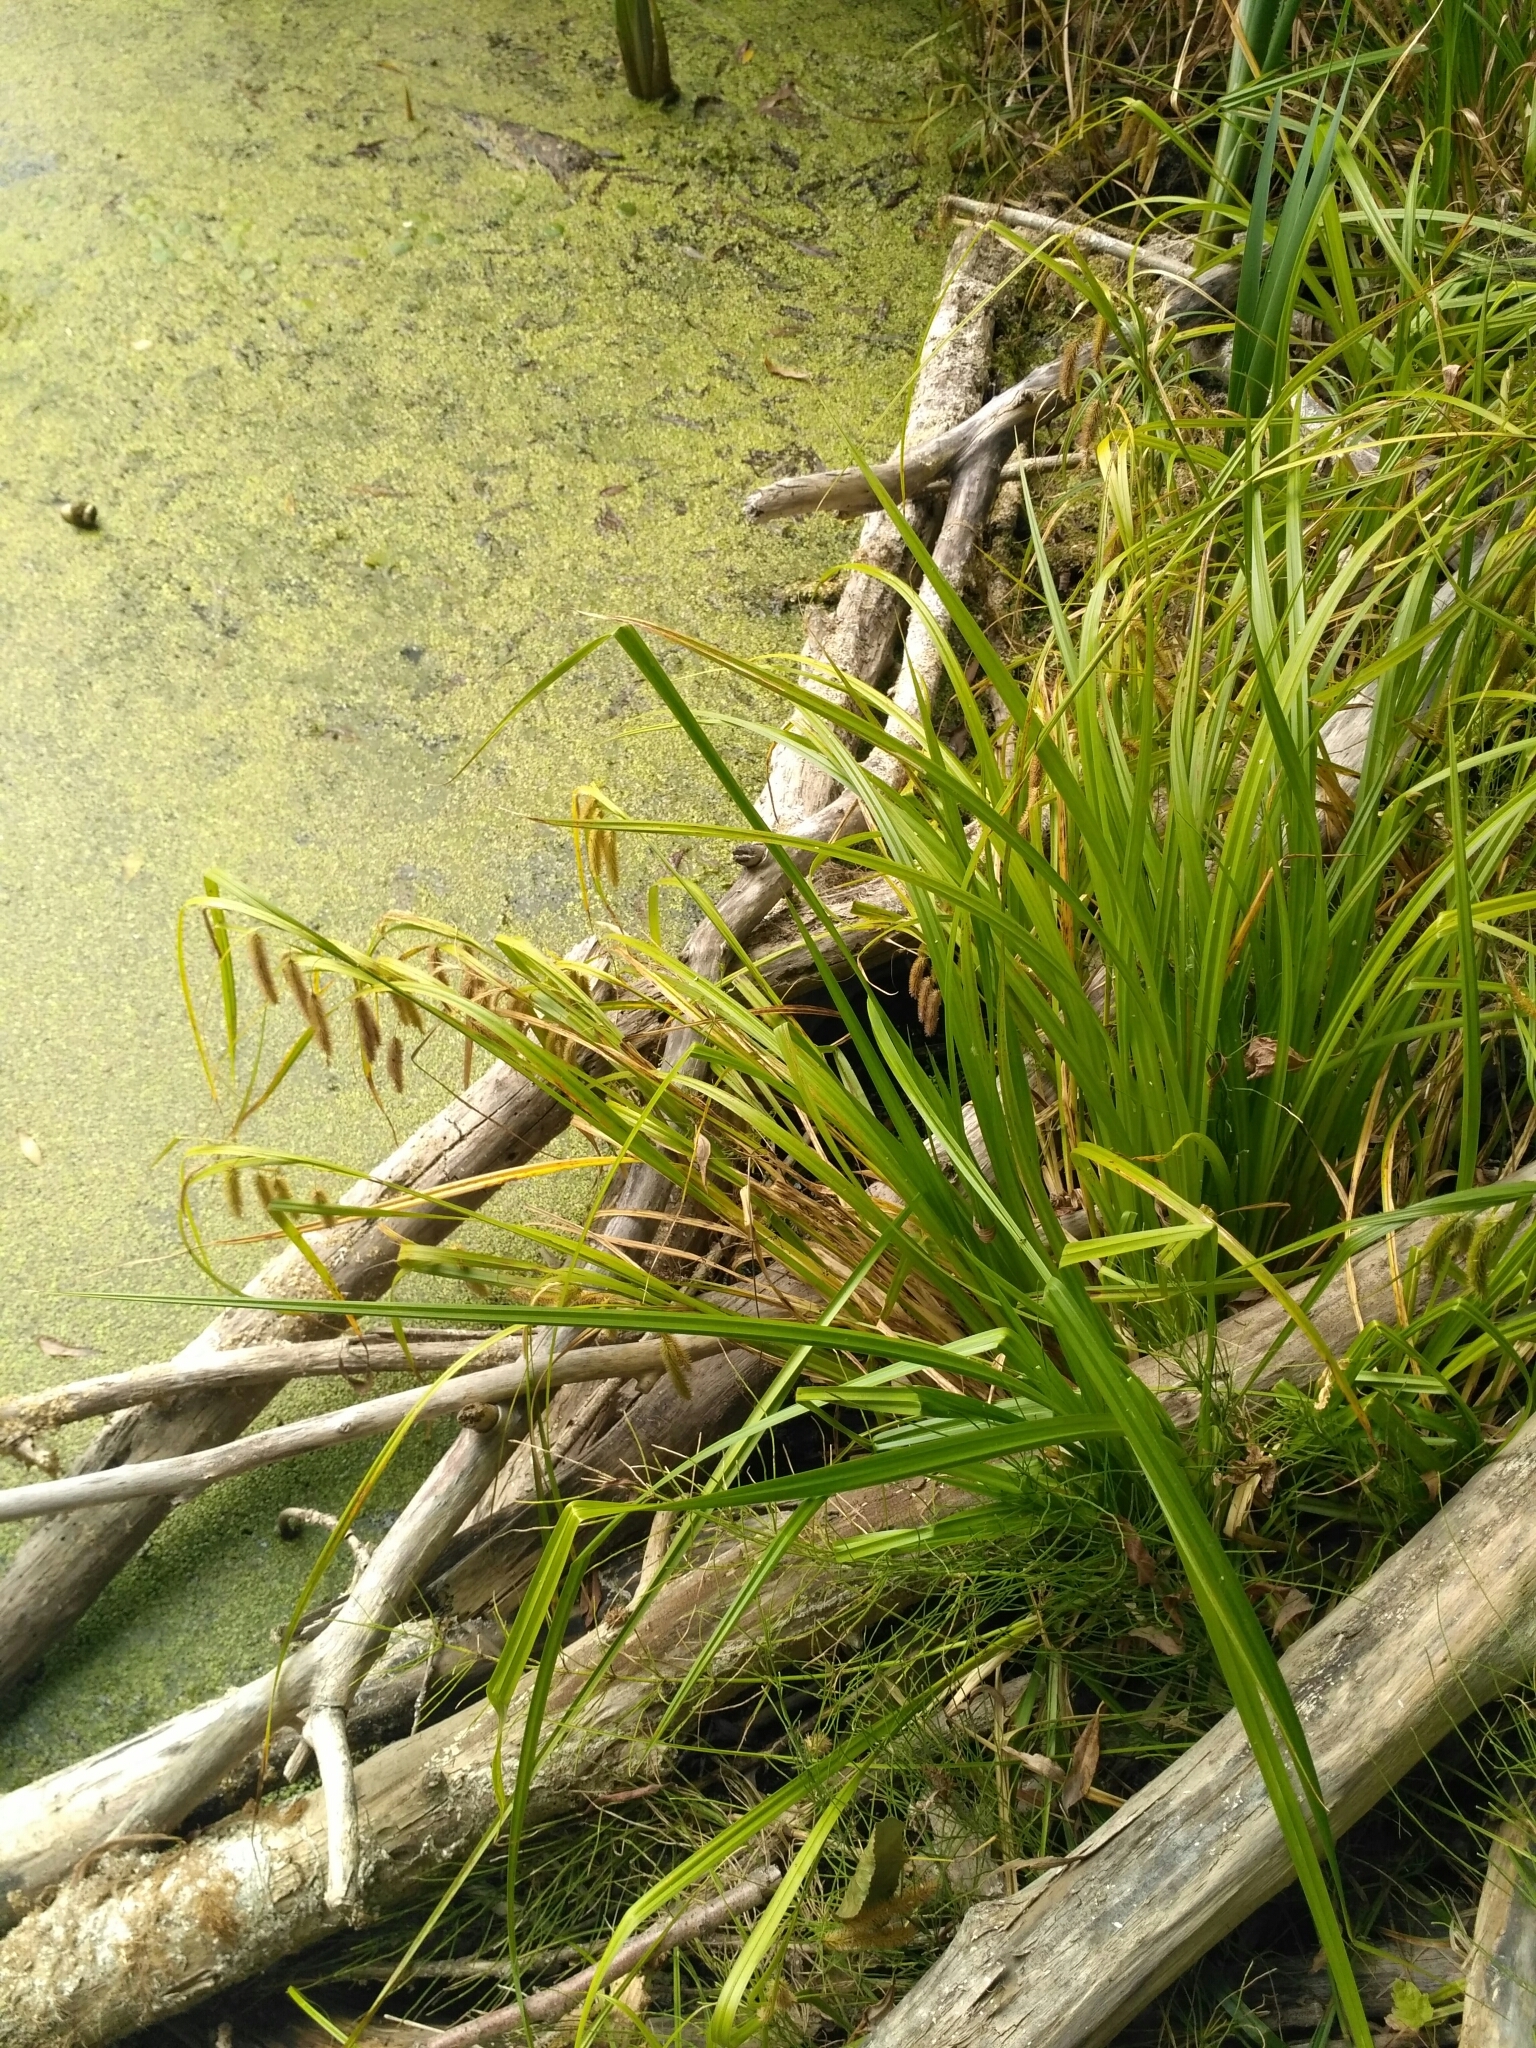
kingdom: Plantae
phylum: Tracheophyta
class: Liliopsida
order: Poales
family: Cyperaceae
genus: Carex
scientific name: Carex pseudocyperus
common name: Cyperus sedge
